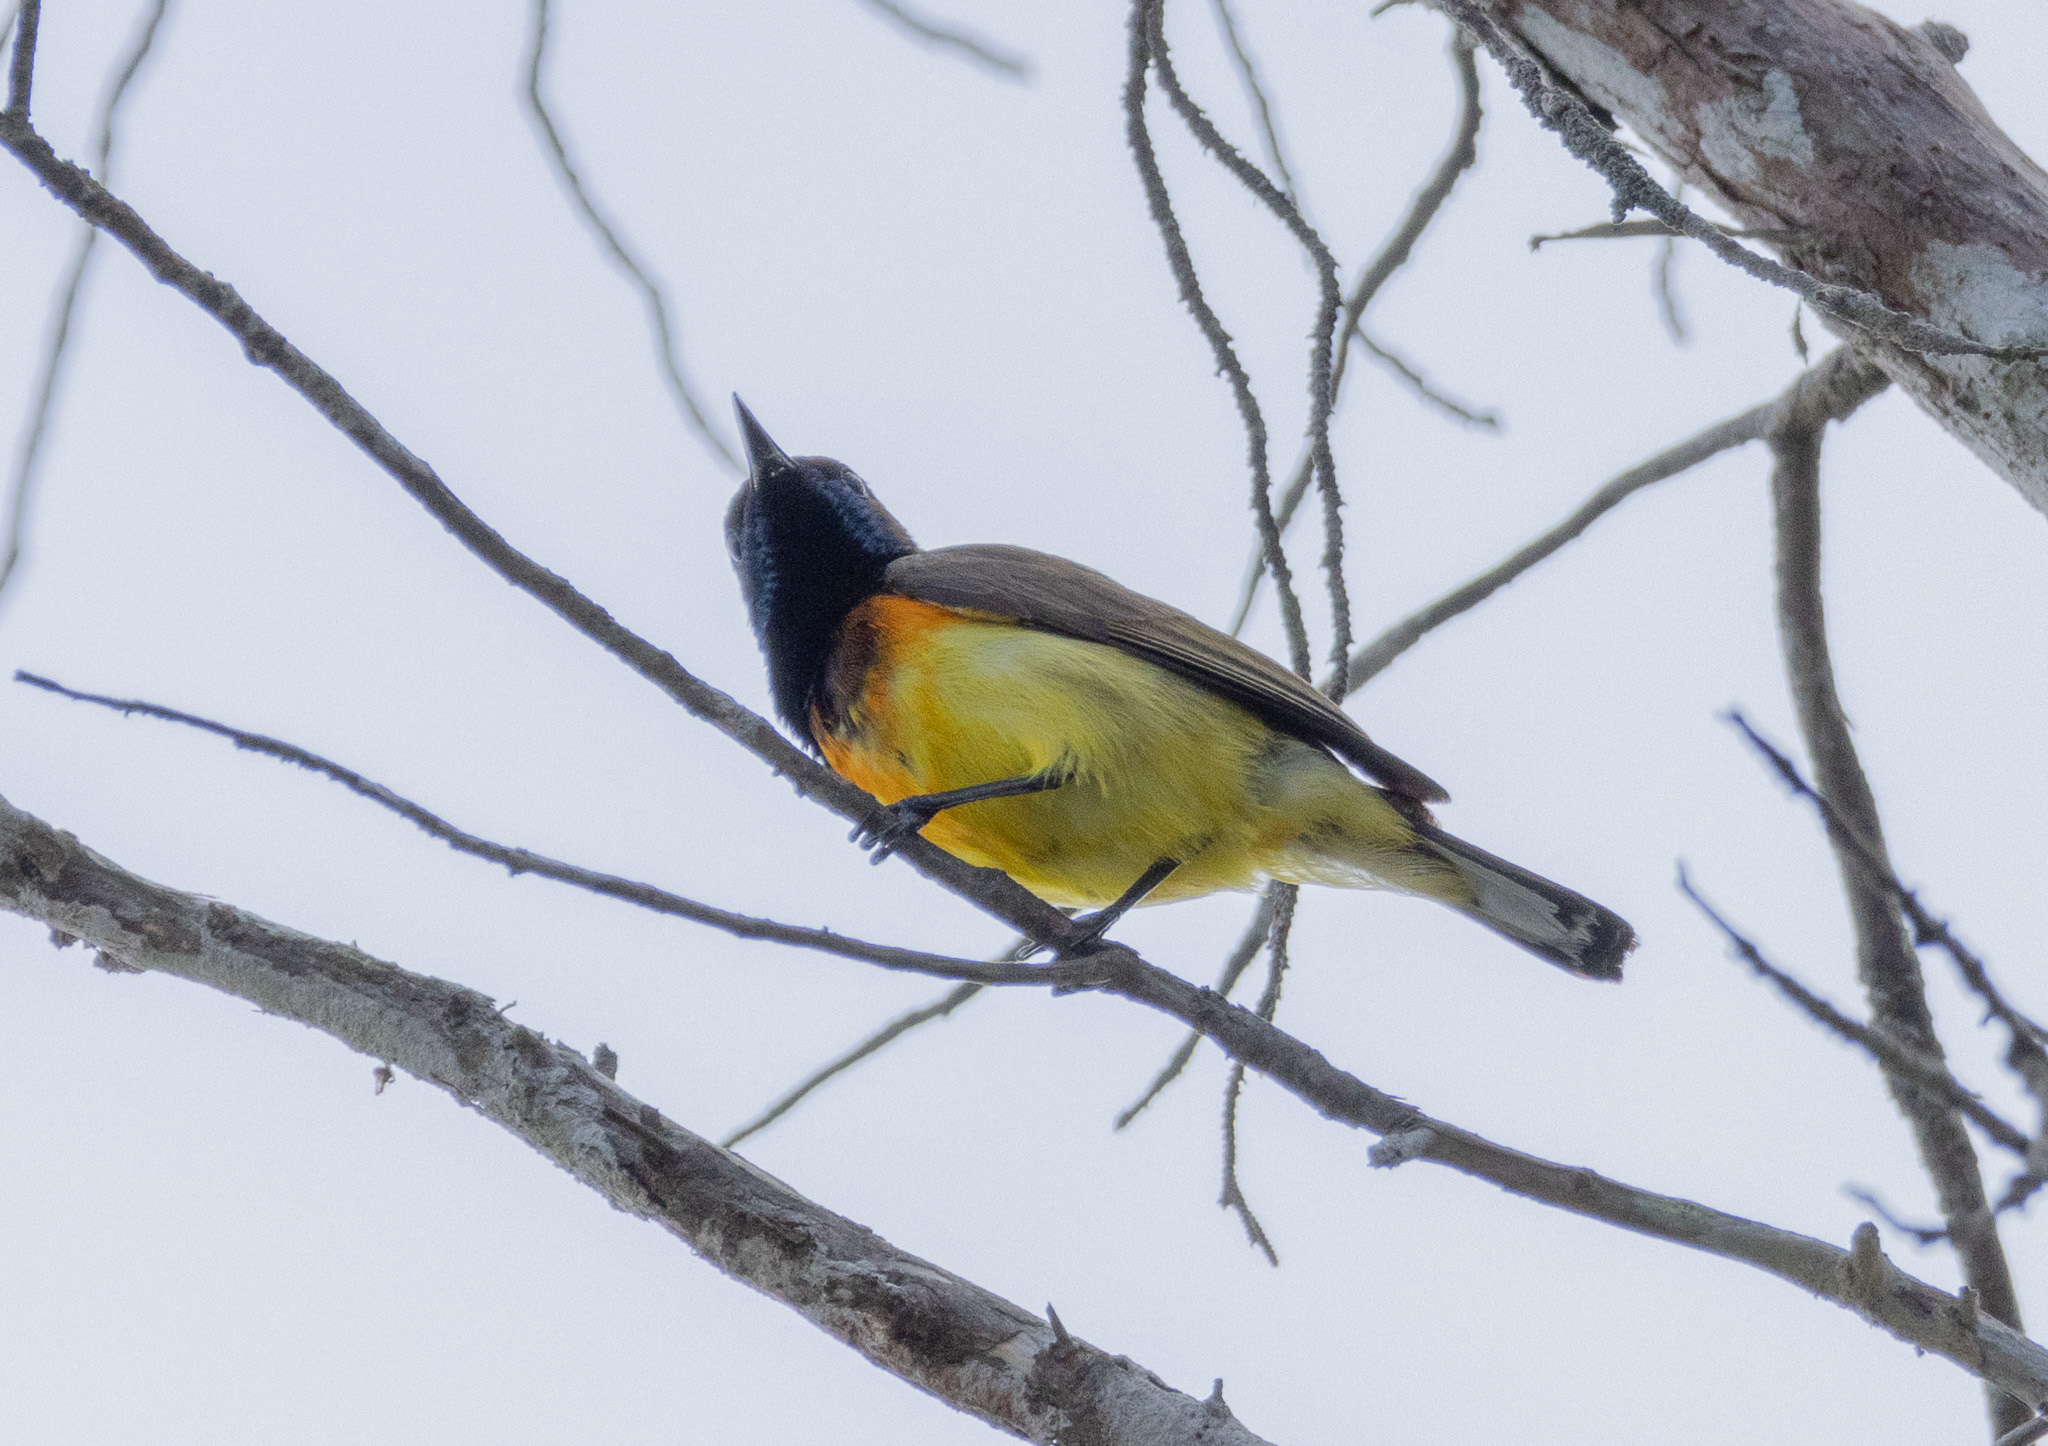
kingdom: Animalia
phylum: Chordata
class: Aves
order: Passeriformes
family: Nectariniidae
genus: Cinnyris
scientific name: Cinnyris
